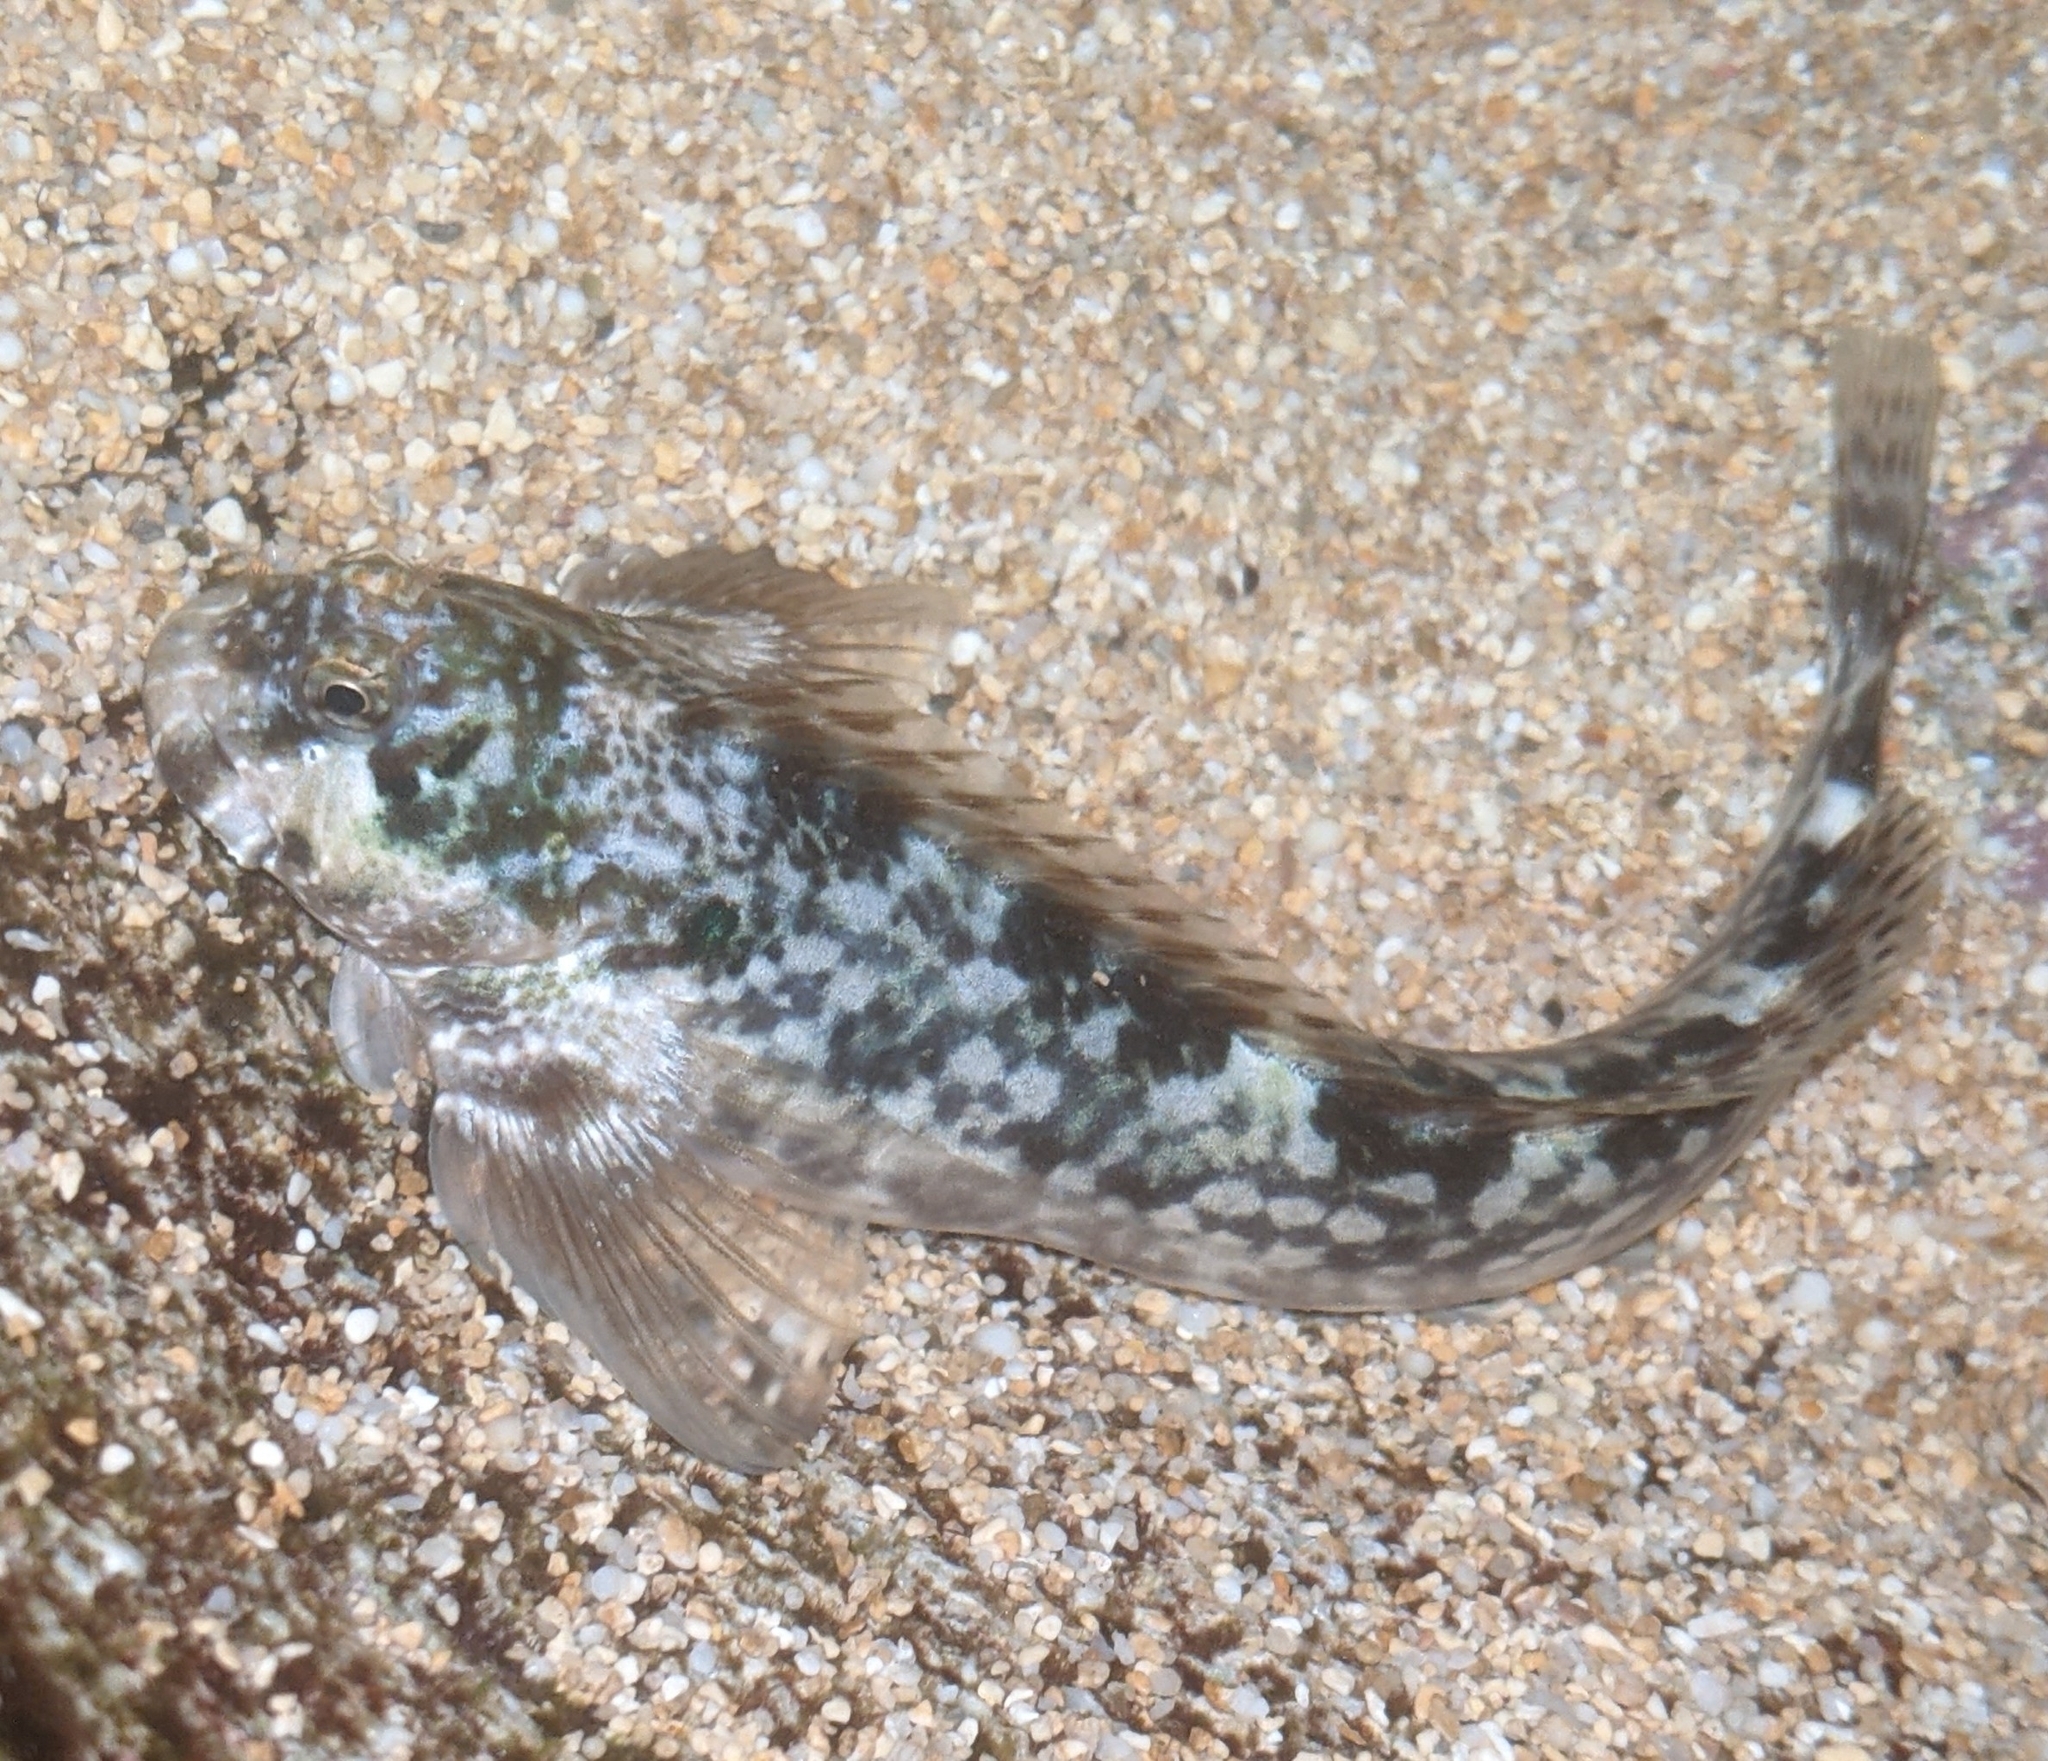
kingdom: Animalia
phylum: Chordata
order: Perciformes
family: Blenniidae
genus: Entomacrodus
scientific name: Entomacrodus marmoratus
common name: Marbled blenny
